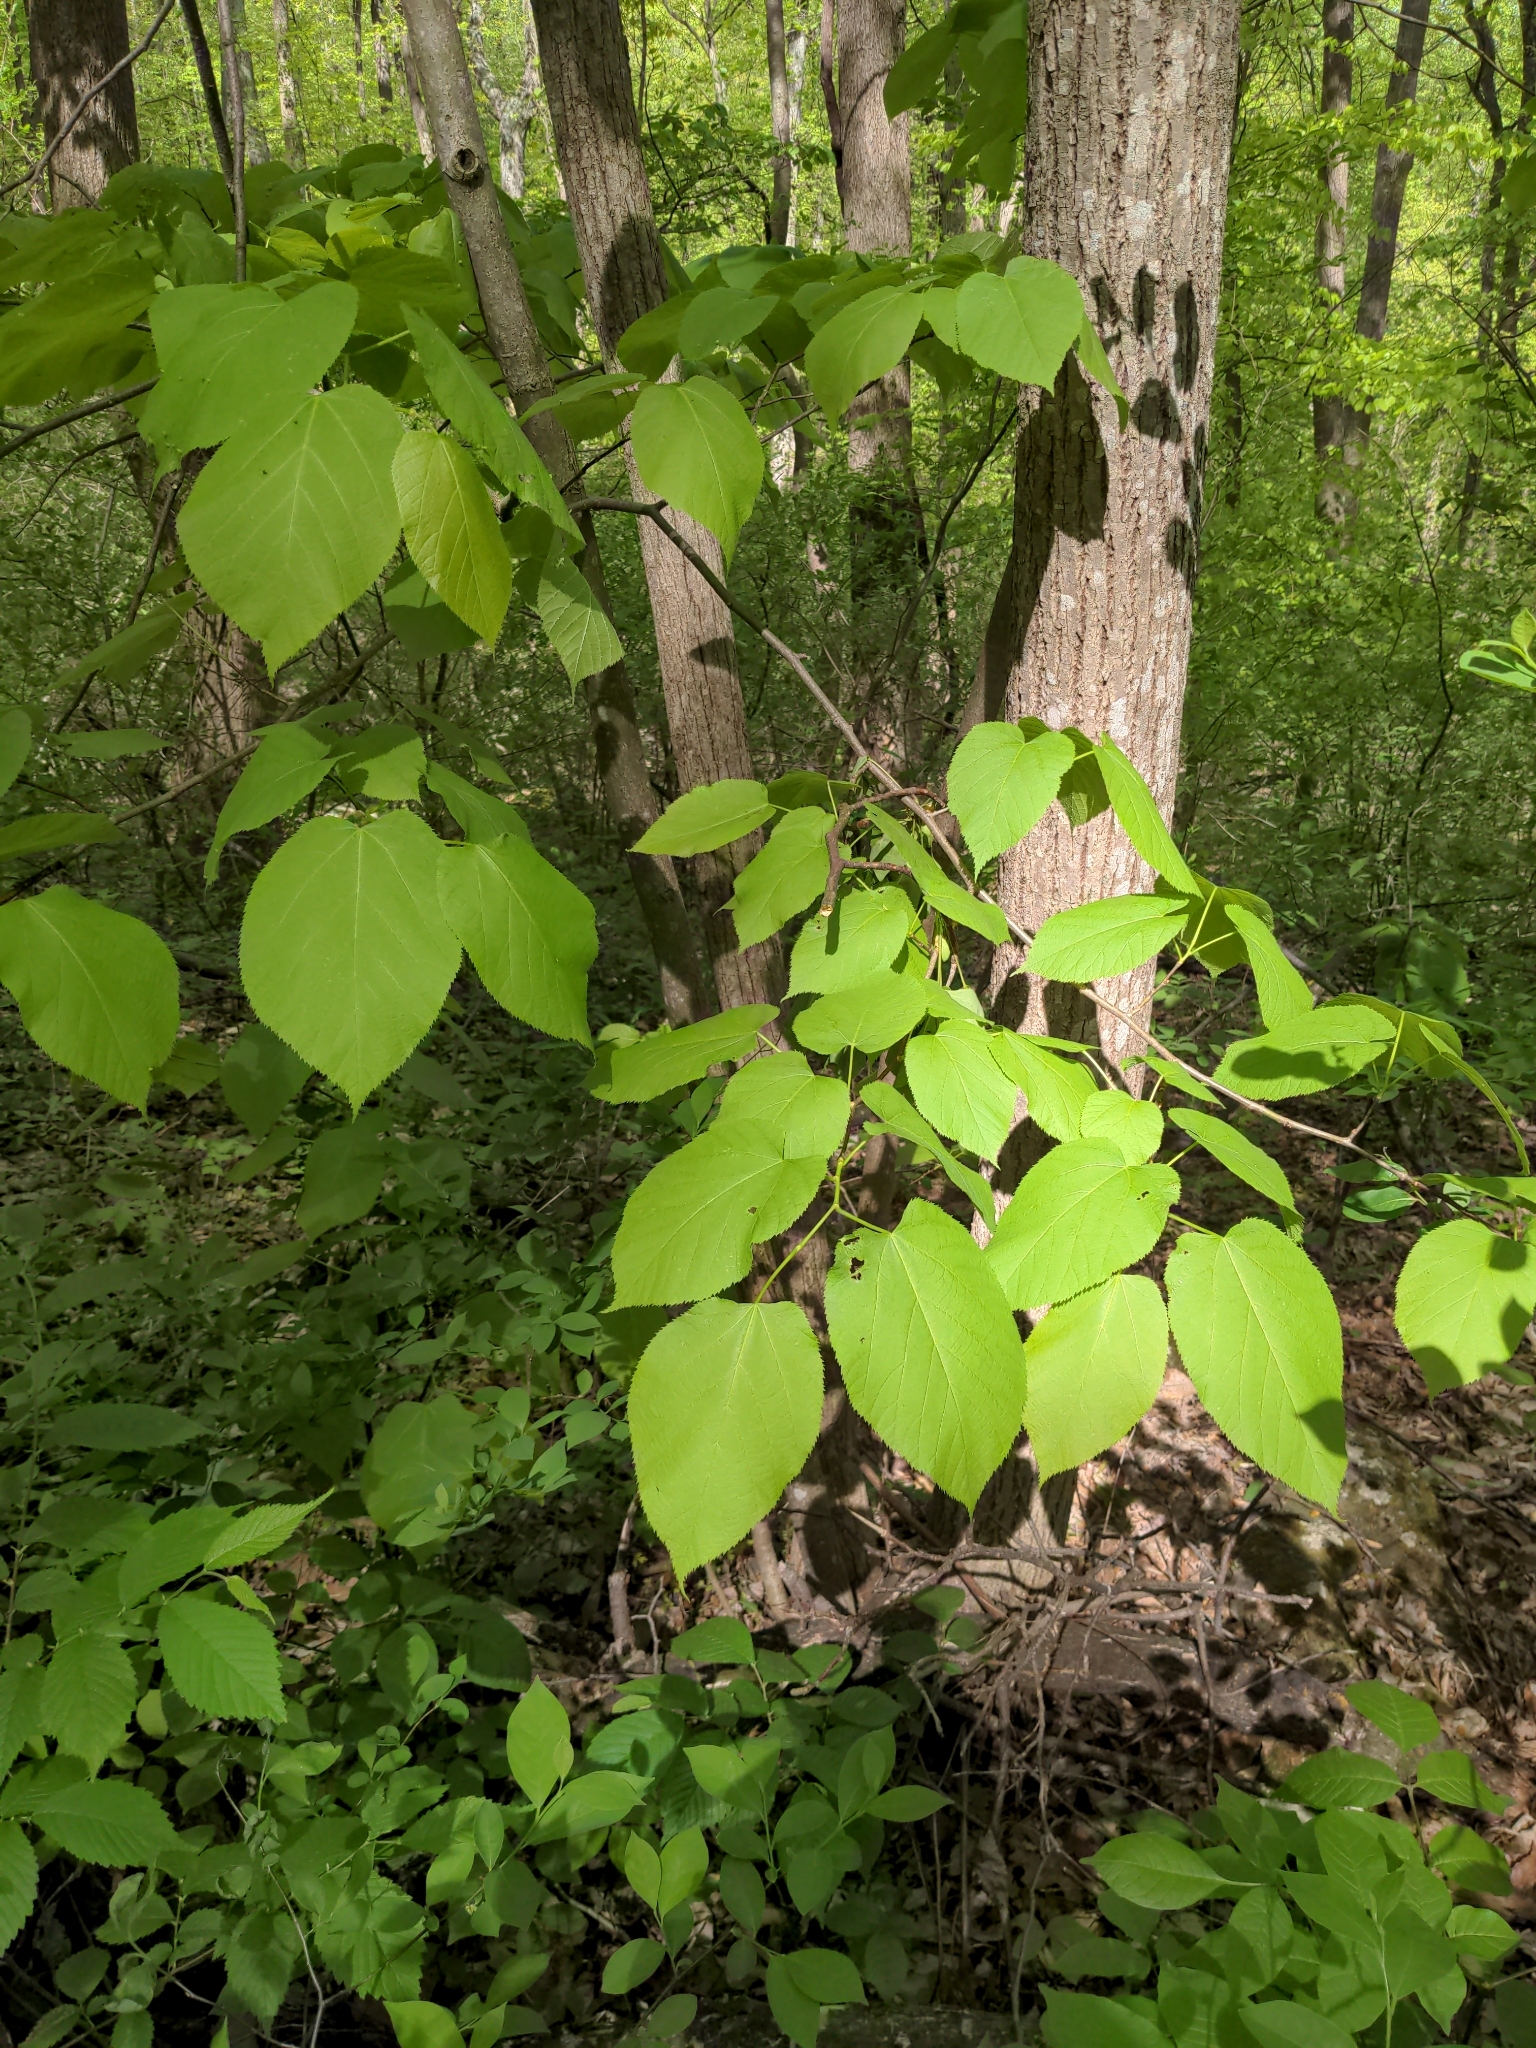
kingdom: Plantae
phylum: Tracheophyta
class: Magnoliopsida
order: Malvales
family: Malvaceae
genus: Tilia
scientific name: Tilia americana
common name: Basswood
